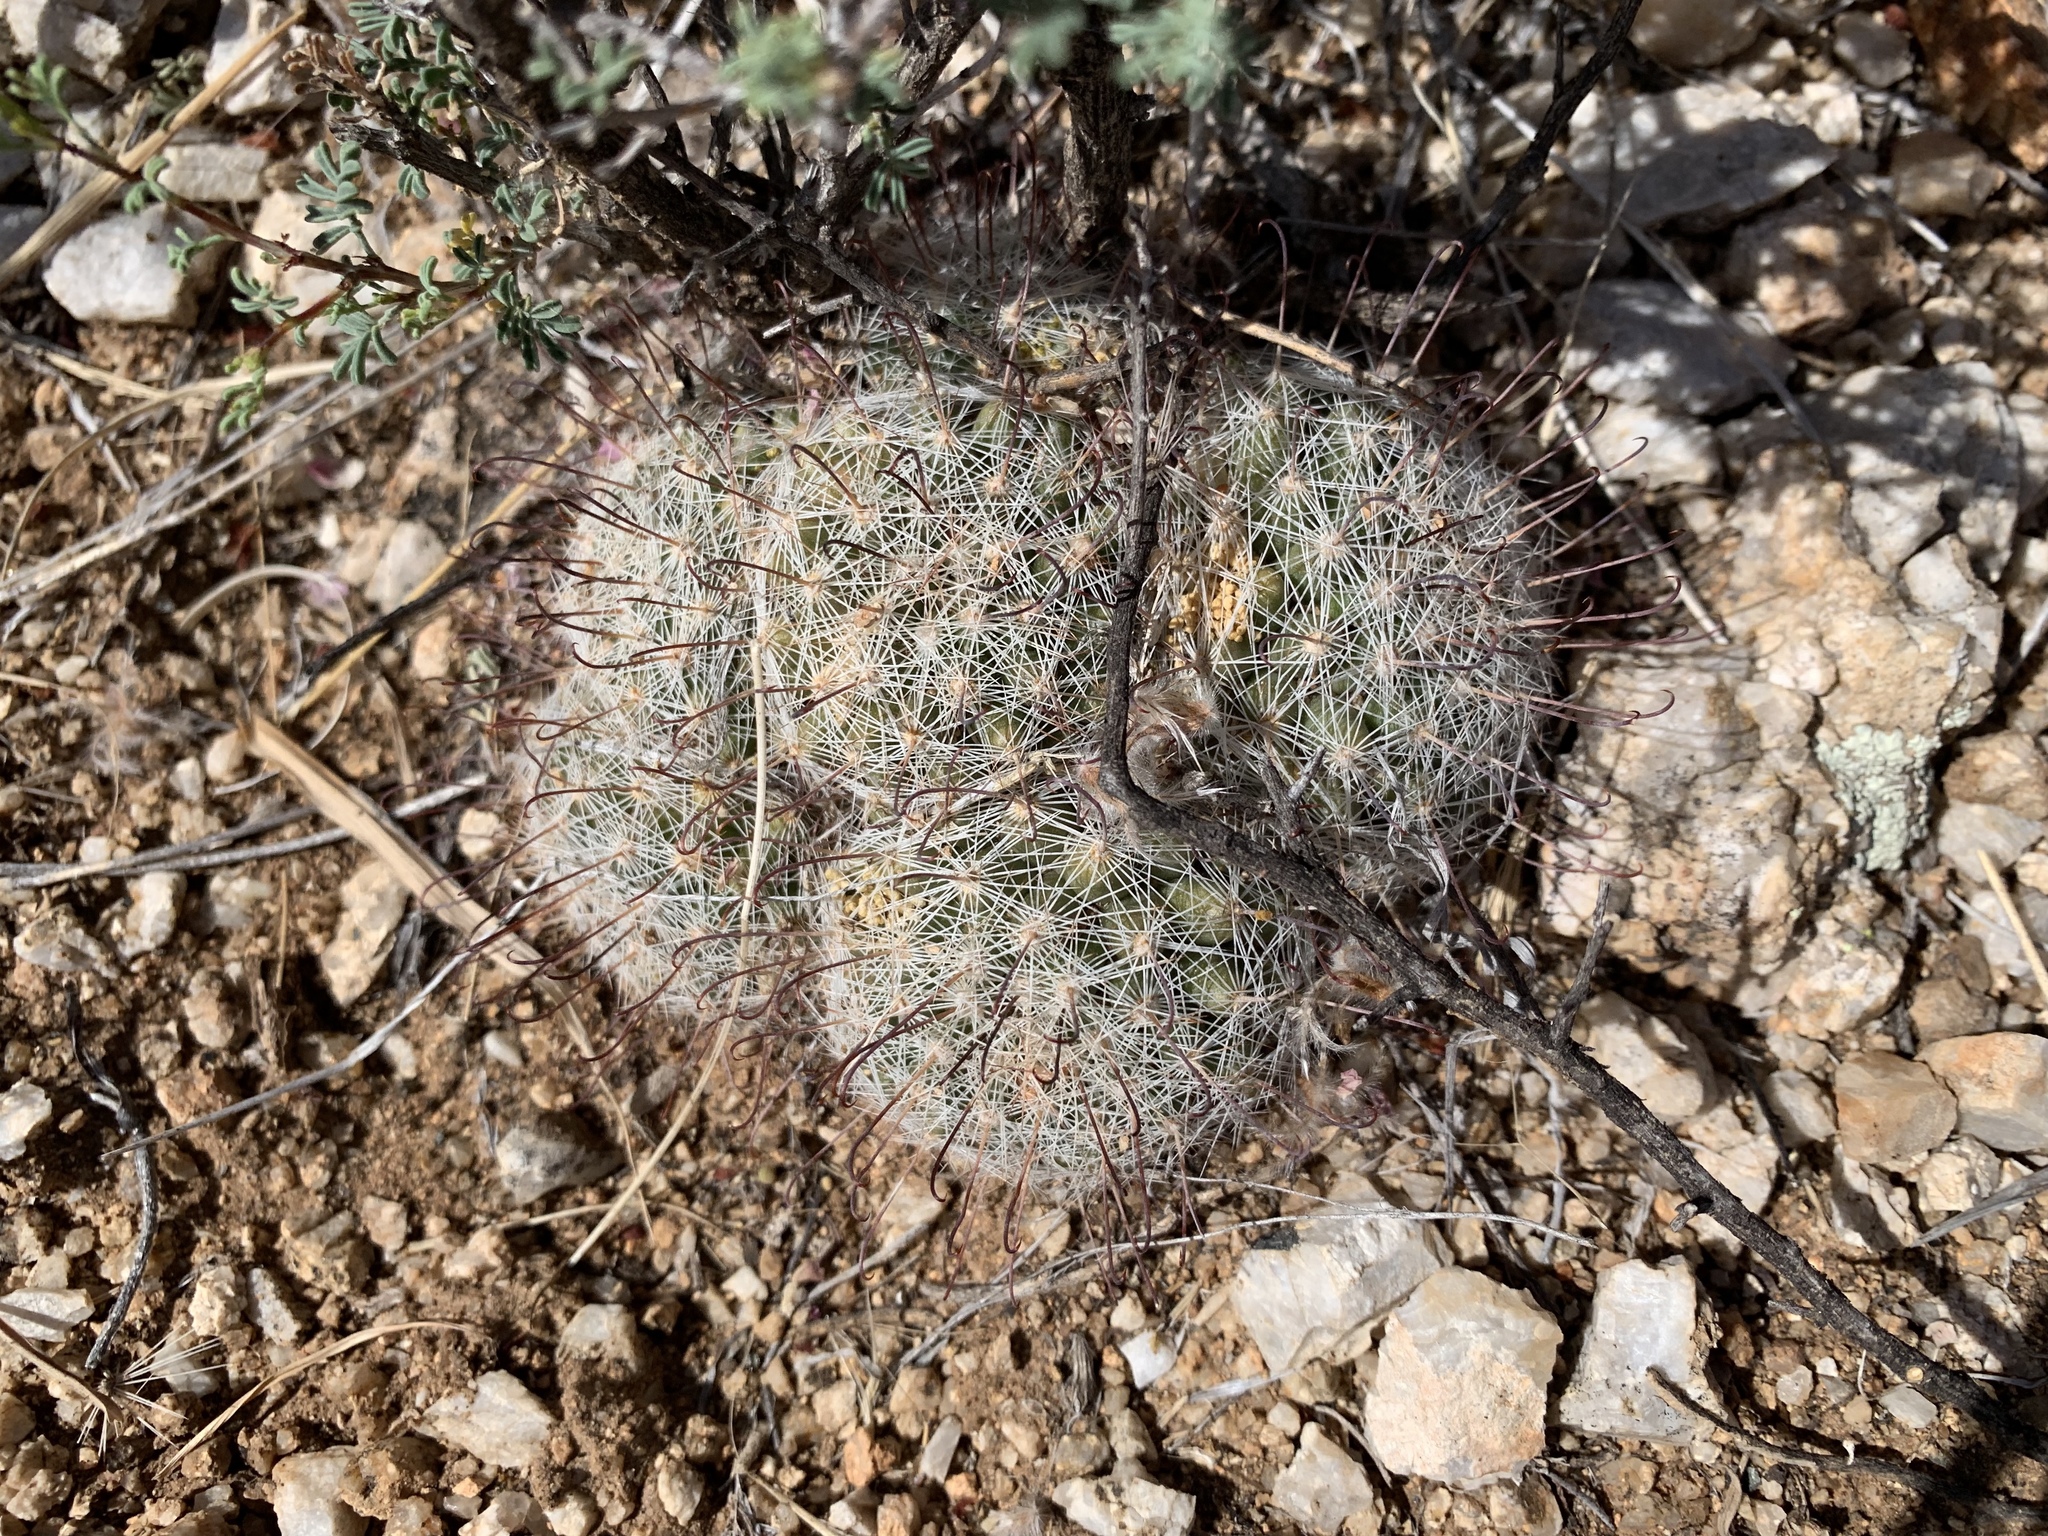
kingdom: Plantae
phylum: Tracheophyta
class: Magnoliopsida
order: Caryophyllales
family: Cactaceae
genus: Cochemiea
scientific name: Cochemiea grahamii
